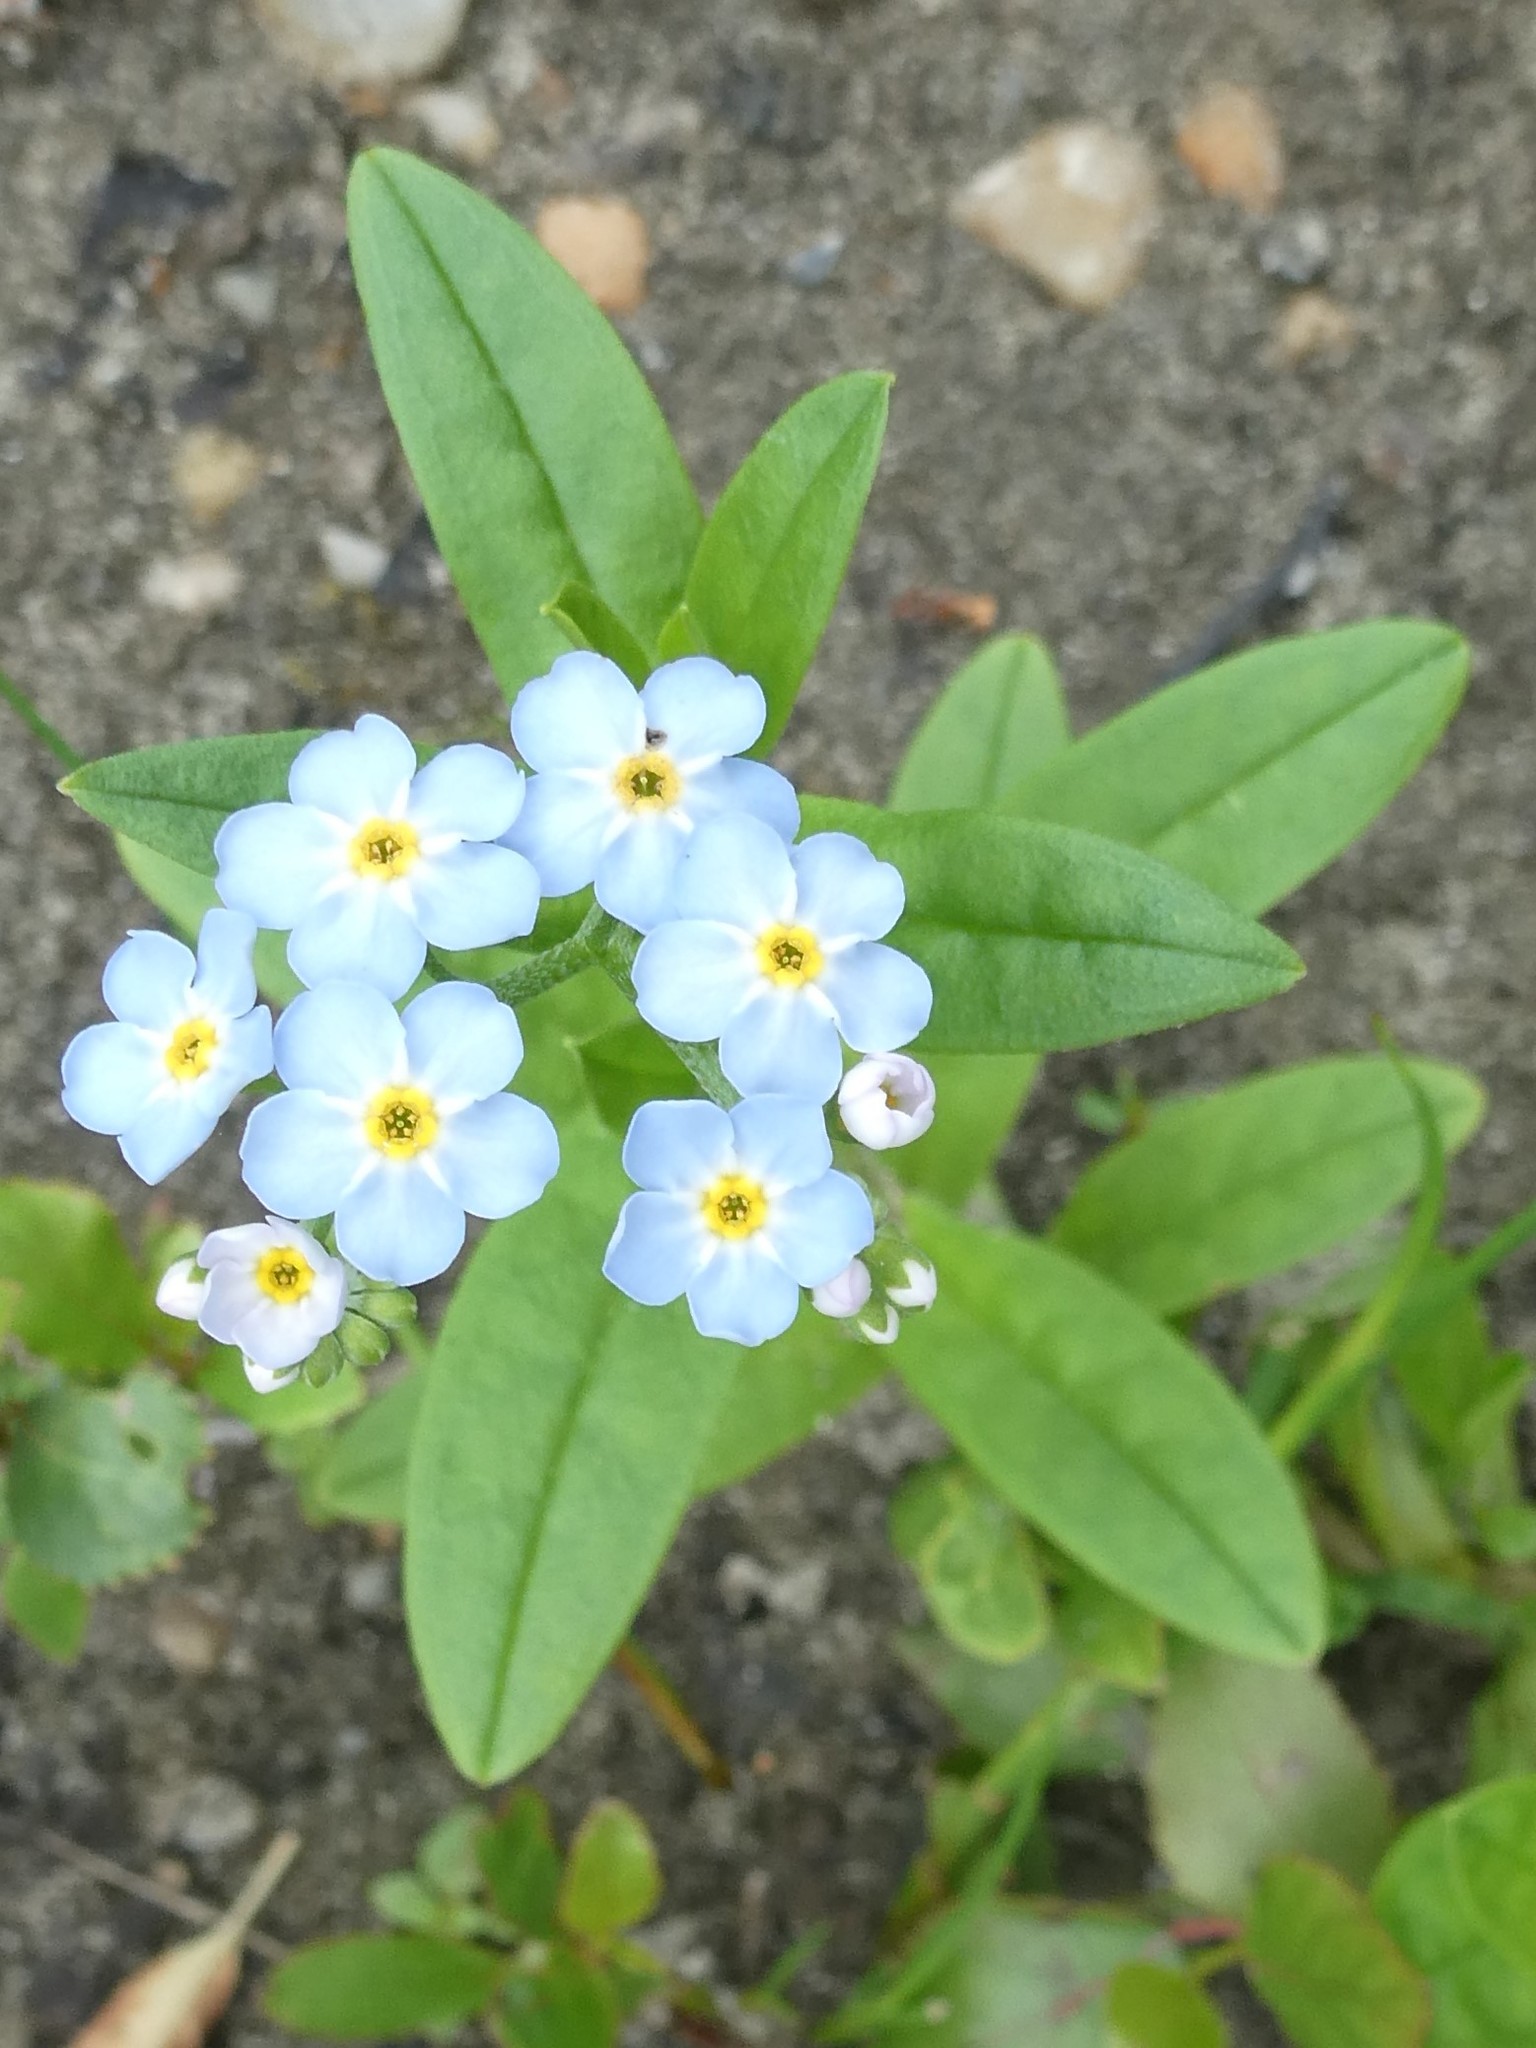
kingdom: Plantae
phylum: Tracheophyta
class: Magnoliopsida
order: Boraginales
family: Boraginaceae
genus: Myosotis
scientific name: Myosotis scorpioides
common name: Water forget-me-not
